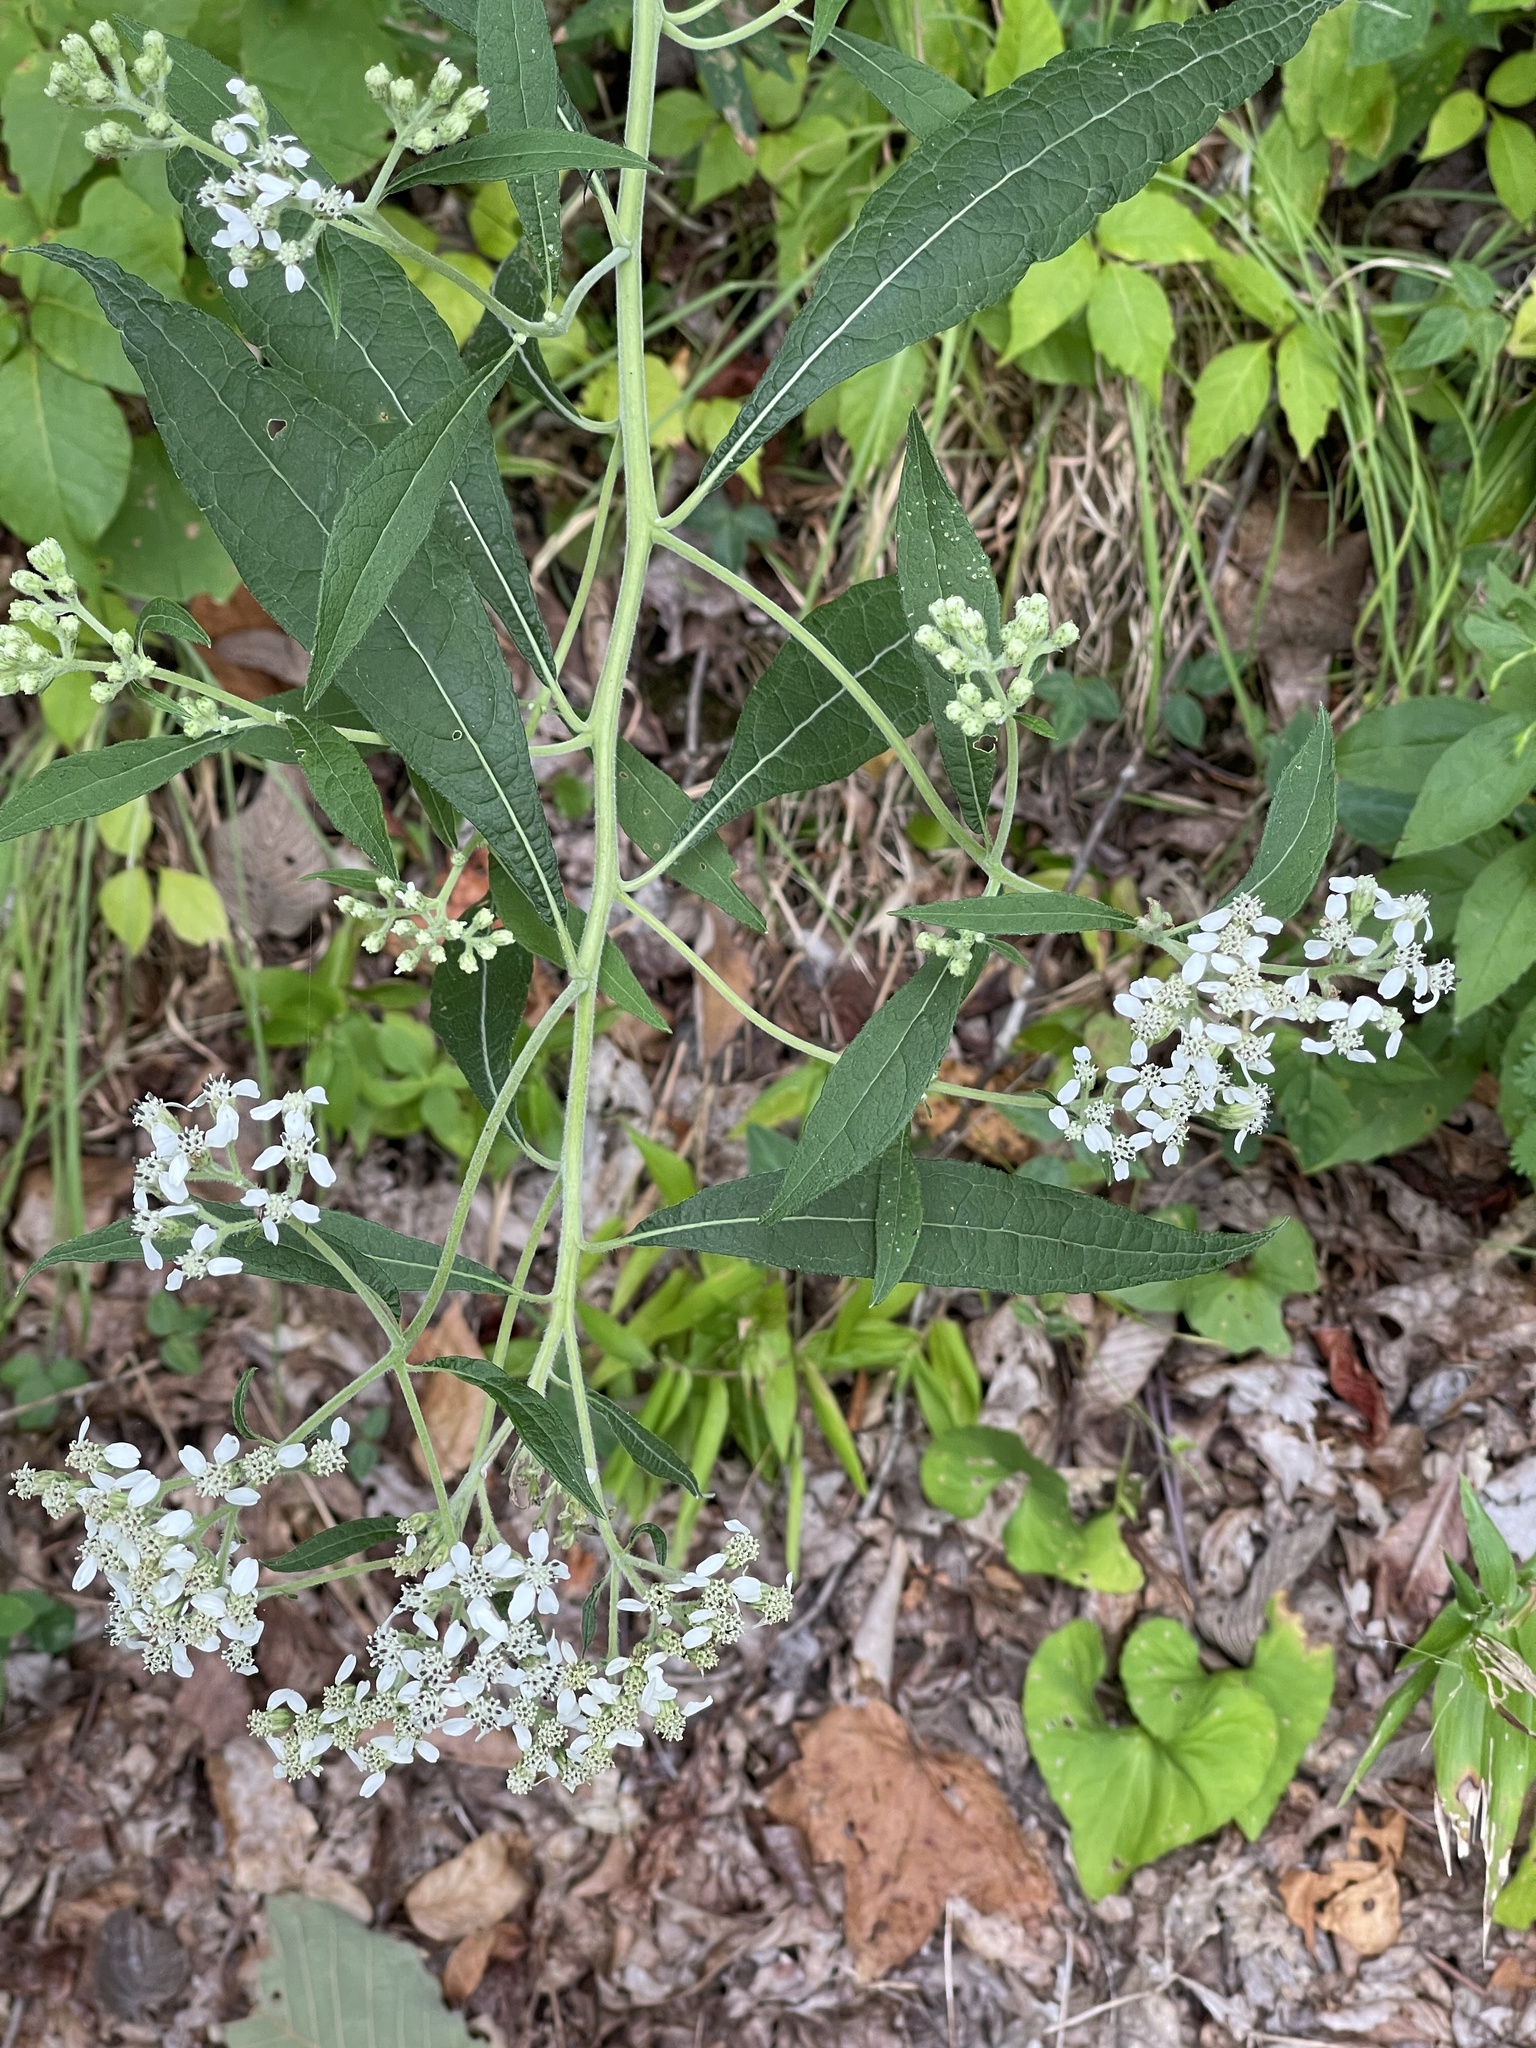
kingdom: Plantae
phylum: Tracheophyta
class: Magnoliopsida
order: Asterales
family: Asteraceae
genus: Verbesina
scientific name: Verbesina virginica
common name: Frostweed
